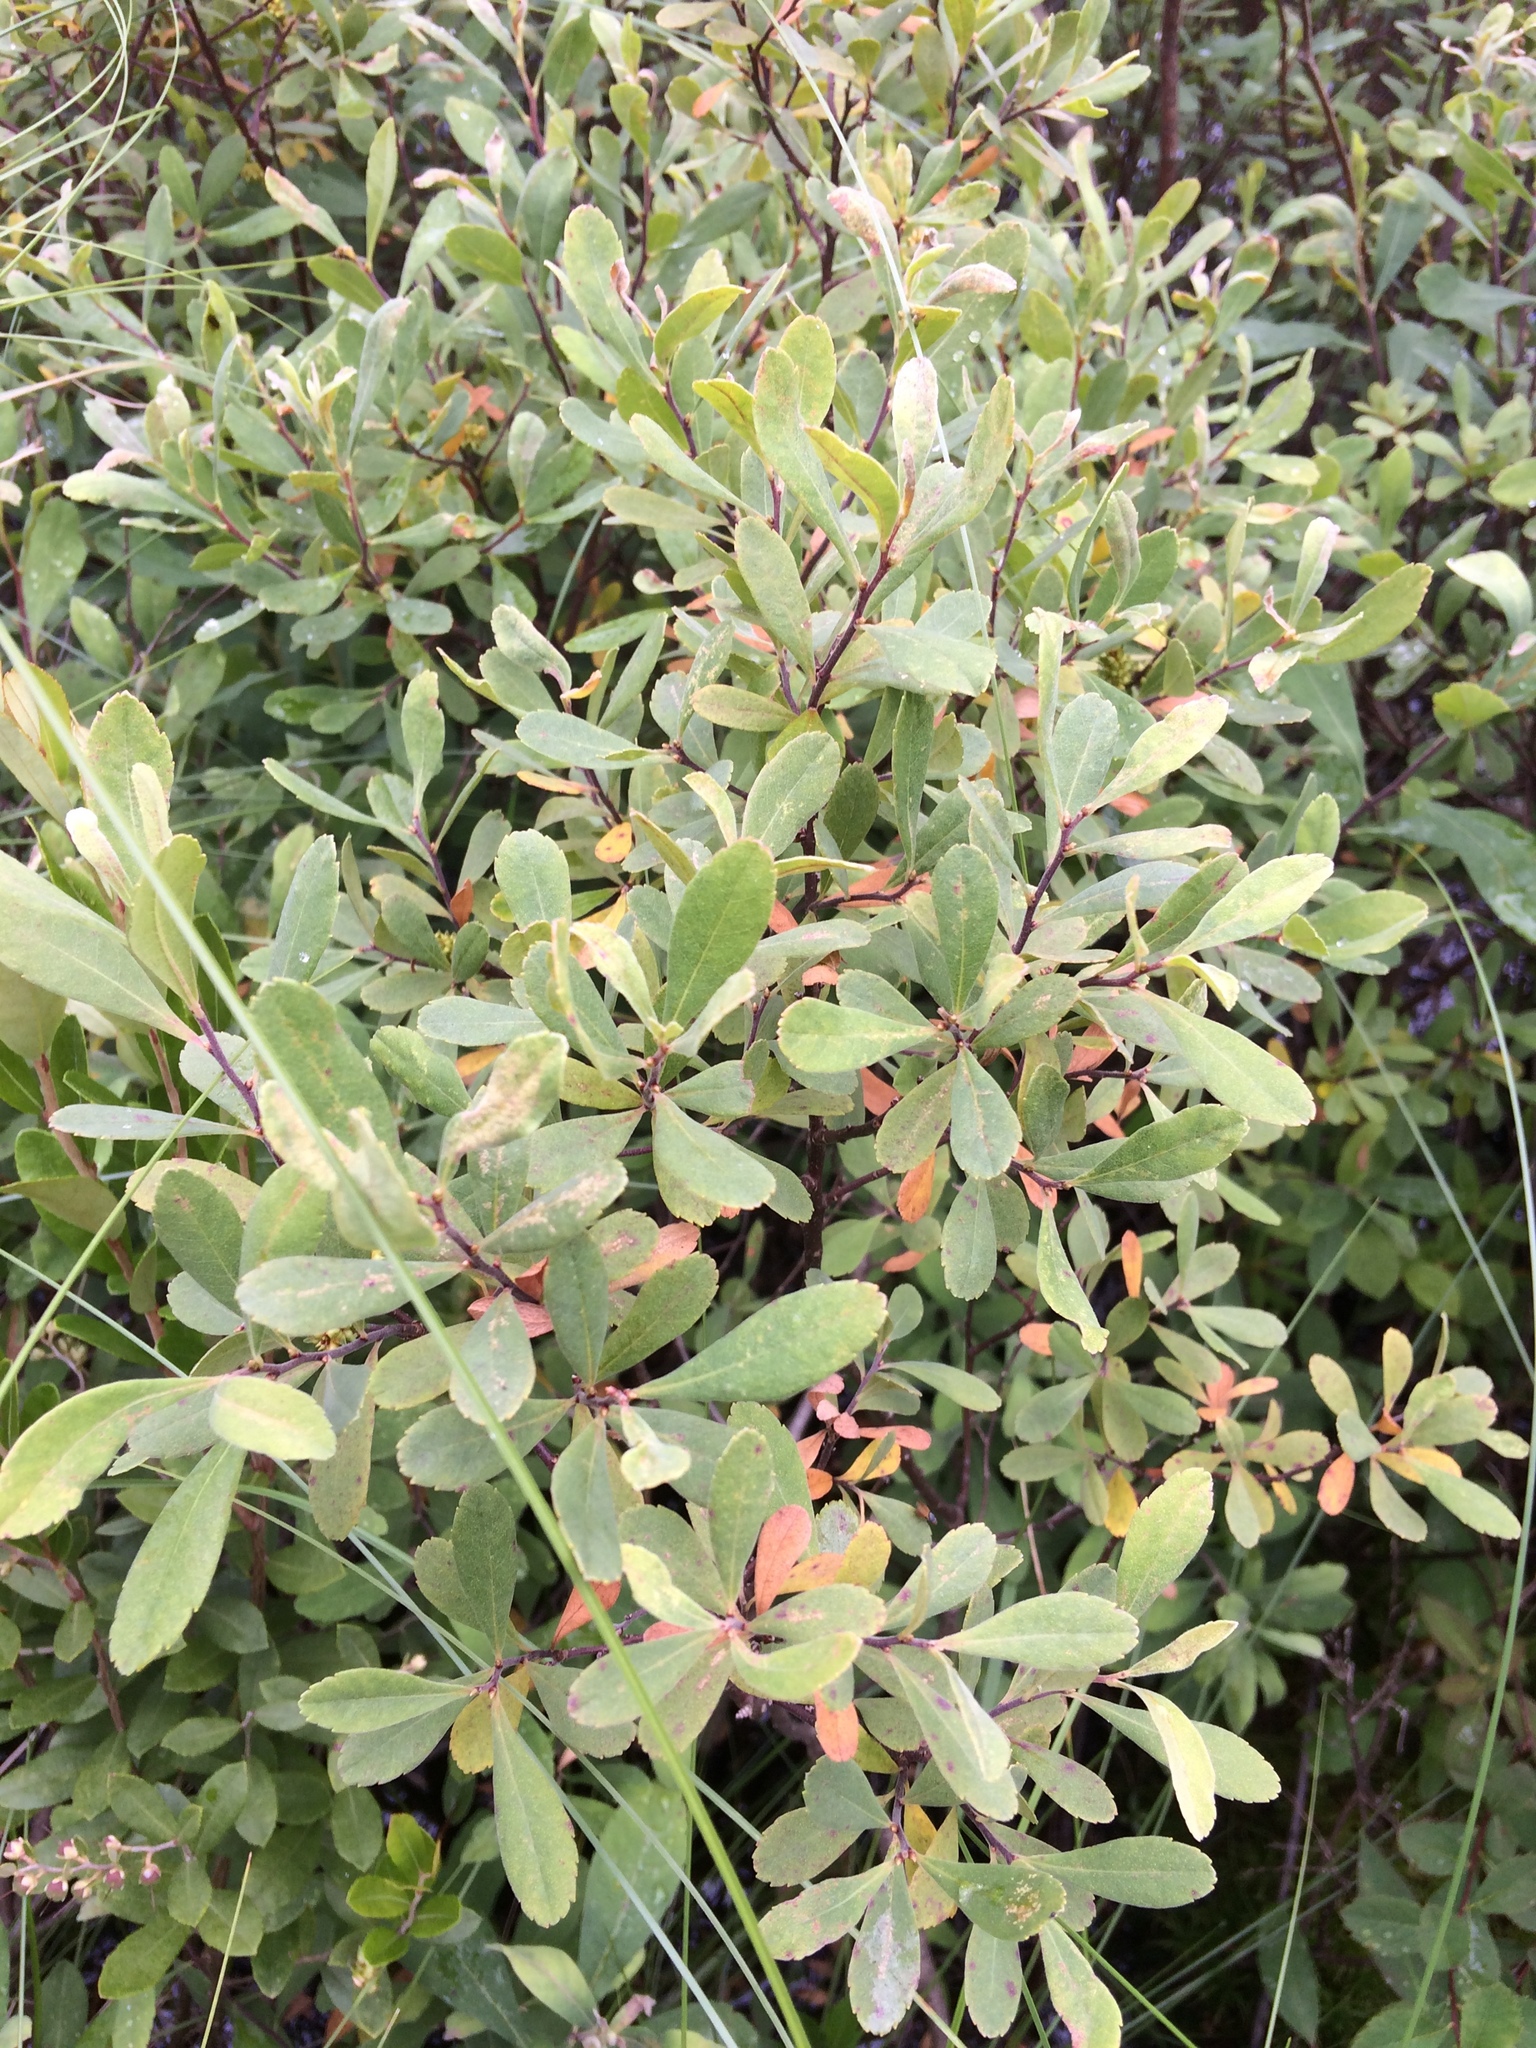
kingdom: Plantae
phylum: Tracheophyta
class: Magnoliopsida
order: Fagales
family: Myricaceae
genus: Myrica
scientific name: Myrica gale
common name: Sweet gale
